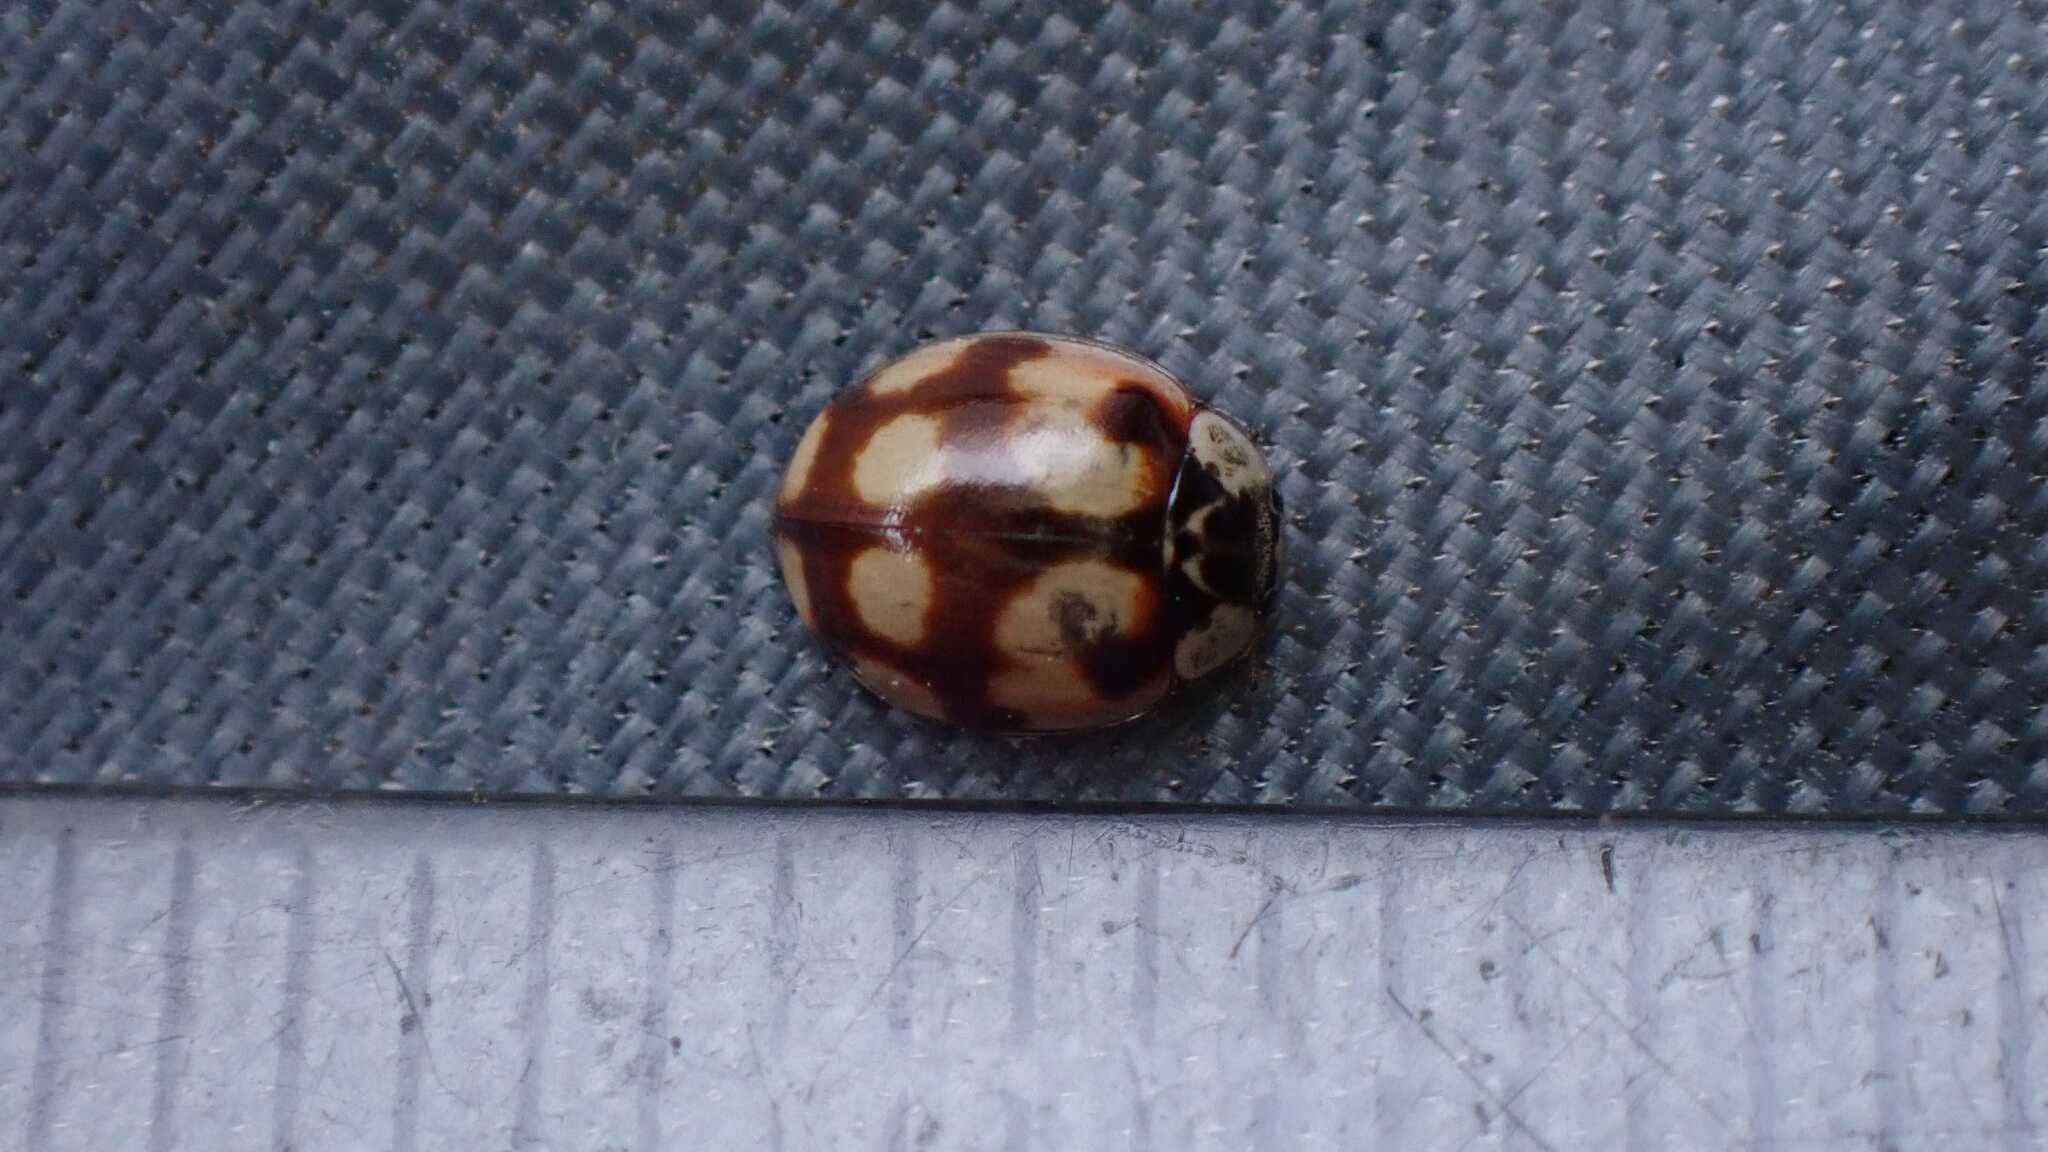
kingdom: Animalia
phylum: Arthropoda
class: Insecta
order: Coleoptera
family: Coccinellidae
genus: Adalia
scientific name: Adalia decempunctata
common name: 10-spot ladybird
